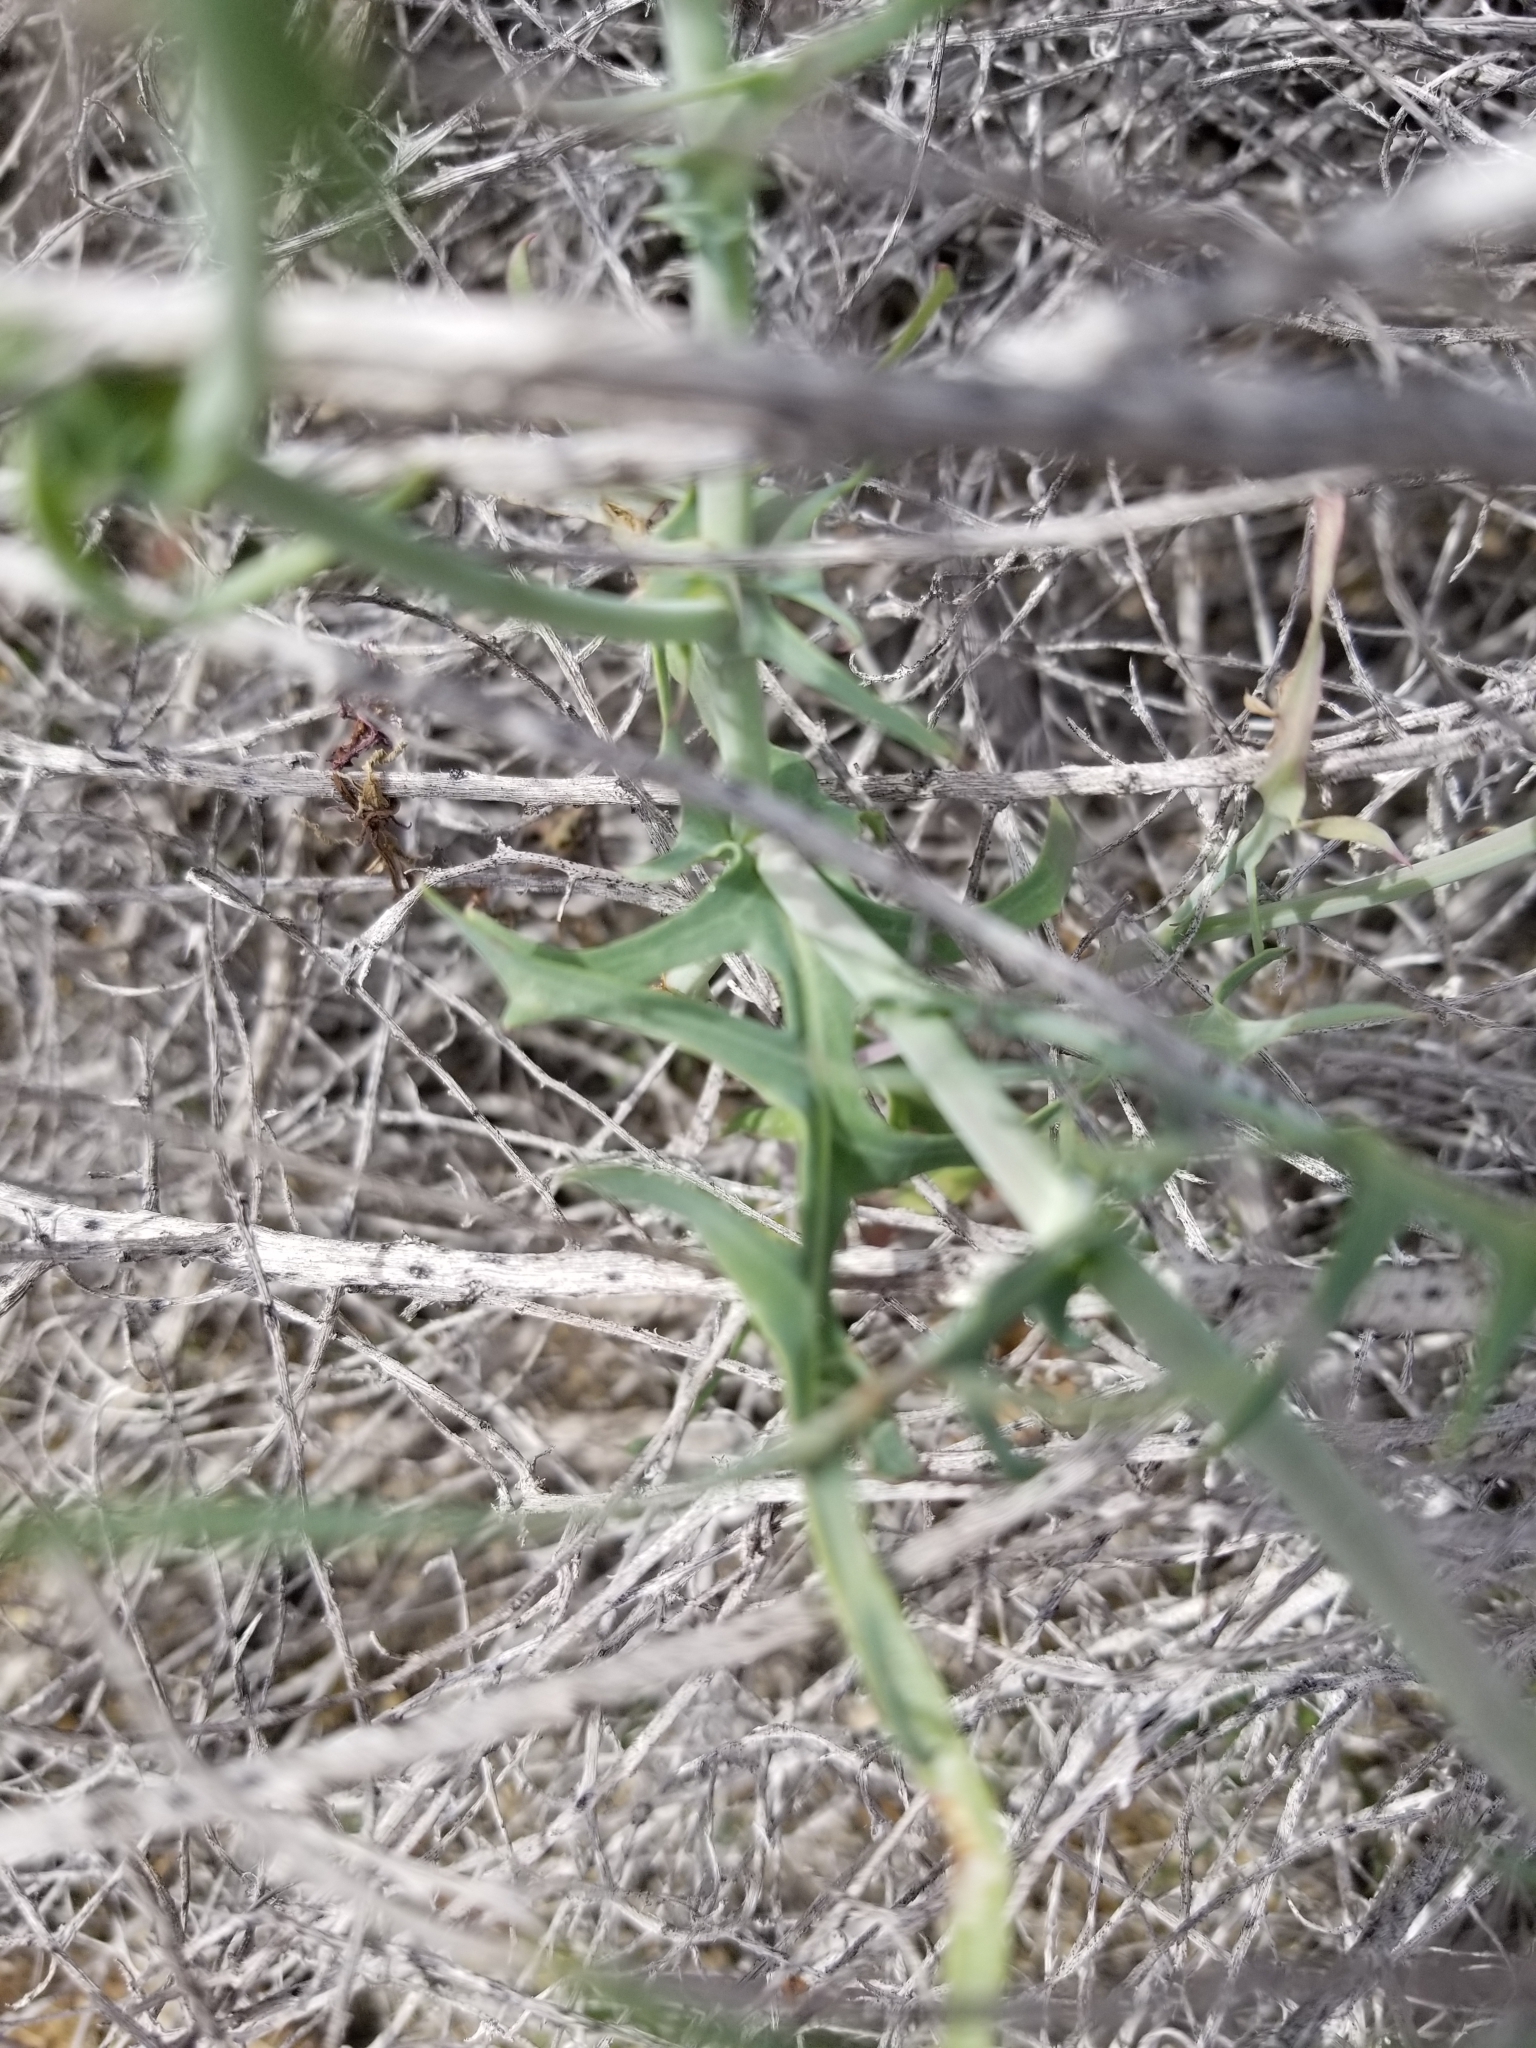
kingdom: Plantae
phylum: Tracheophyta
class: Magnoliopsida
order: Asterales
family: Asteraceae
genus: Rafinesquia
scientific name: Rafinesquia neomexicana
